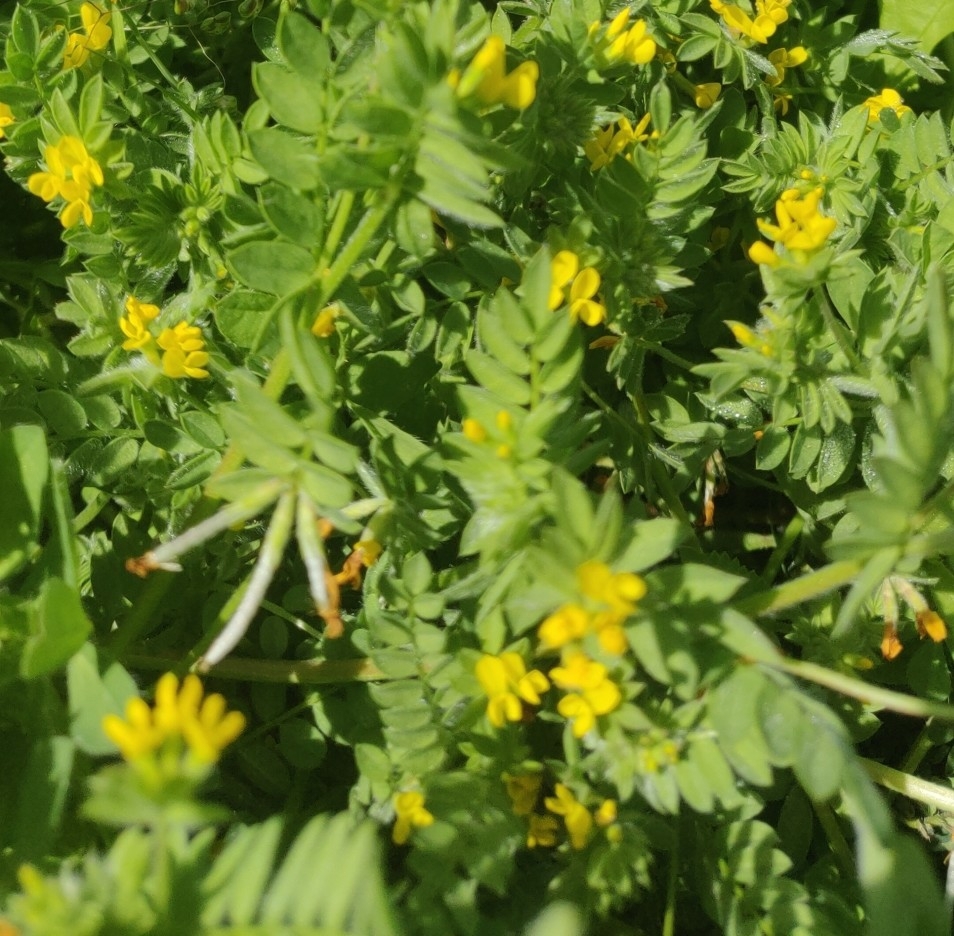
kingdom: Plantae
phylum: Tracheophyta
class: Magnoliopsida
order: Fabales
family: Fabaceae
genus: Ornithopus
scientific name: Ornithopus pinnatus
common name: Orange bird's-foot
